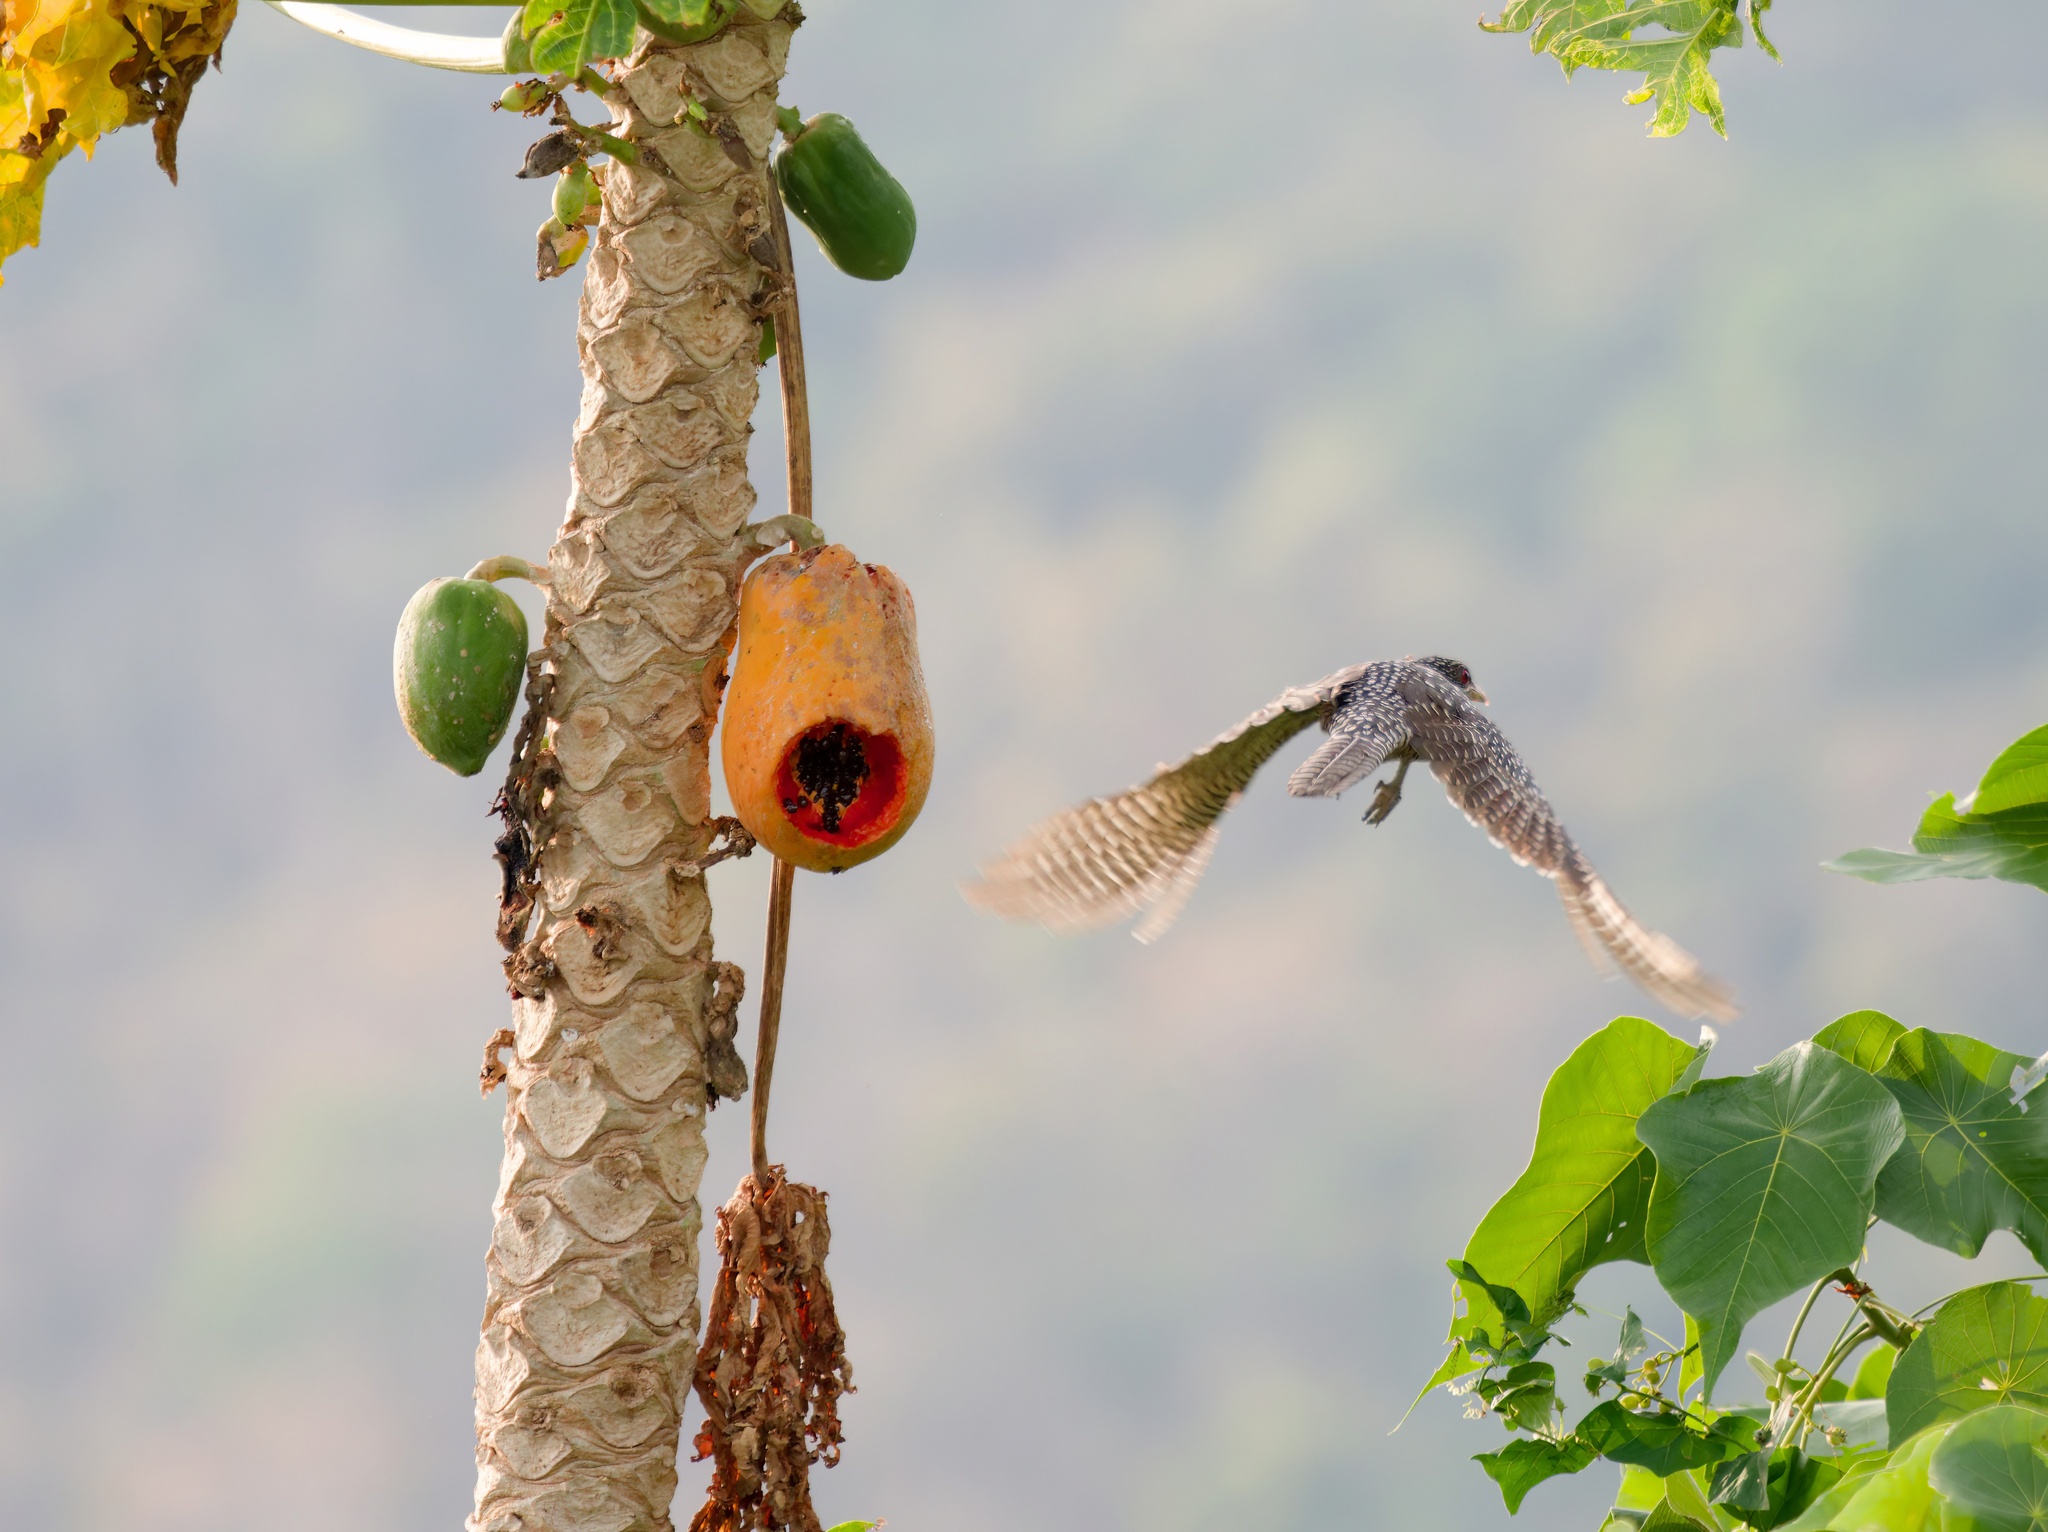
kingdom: Animalia
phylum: Chordata
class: Aves
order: Cuculiformes
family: Cuculidae
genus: Eudynamys
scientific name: Eudynamys scolopaceus
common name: Asian koel
